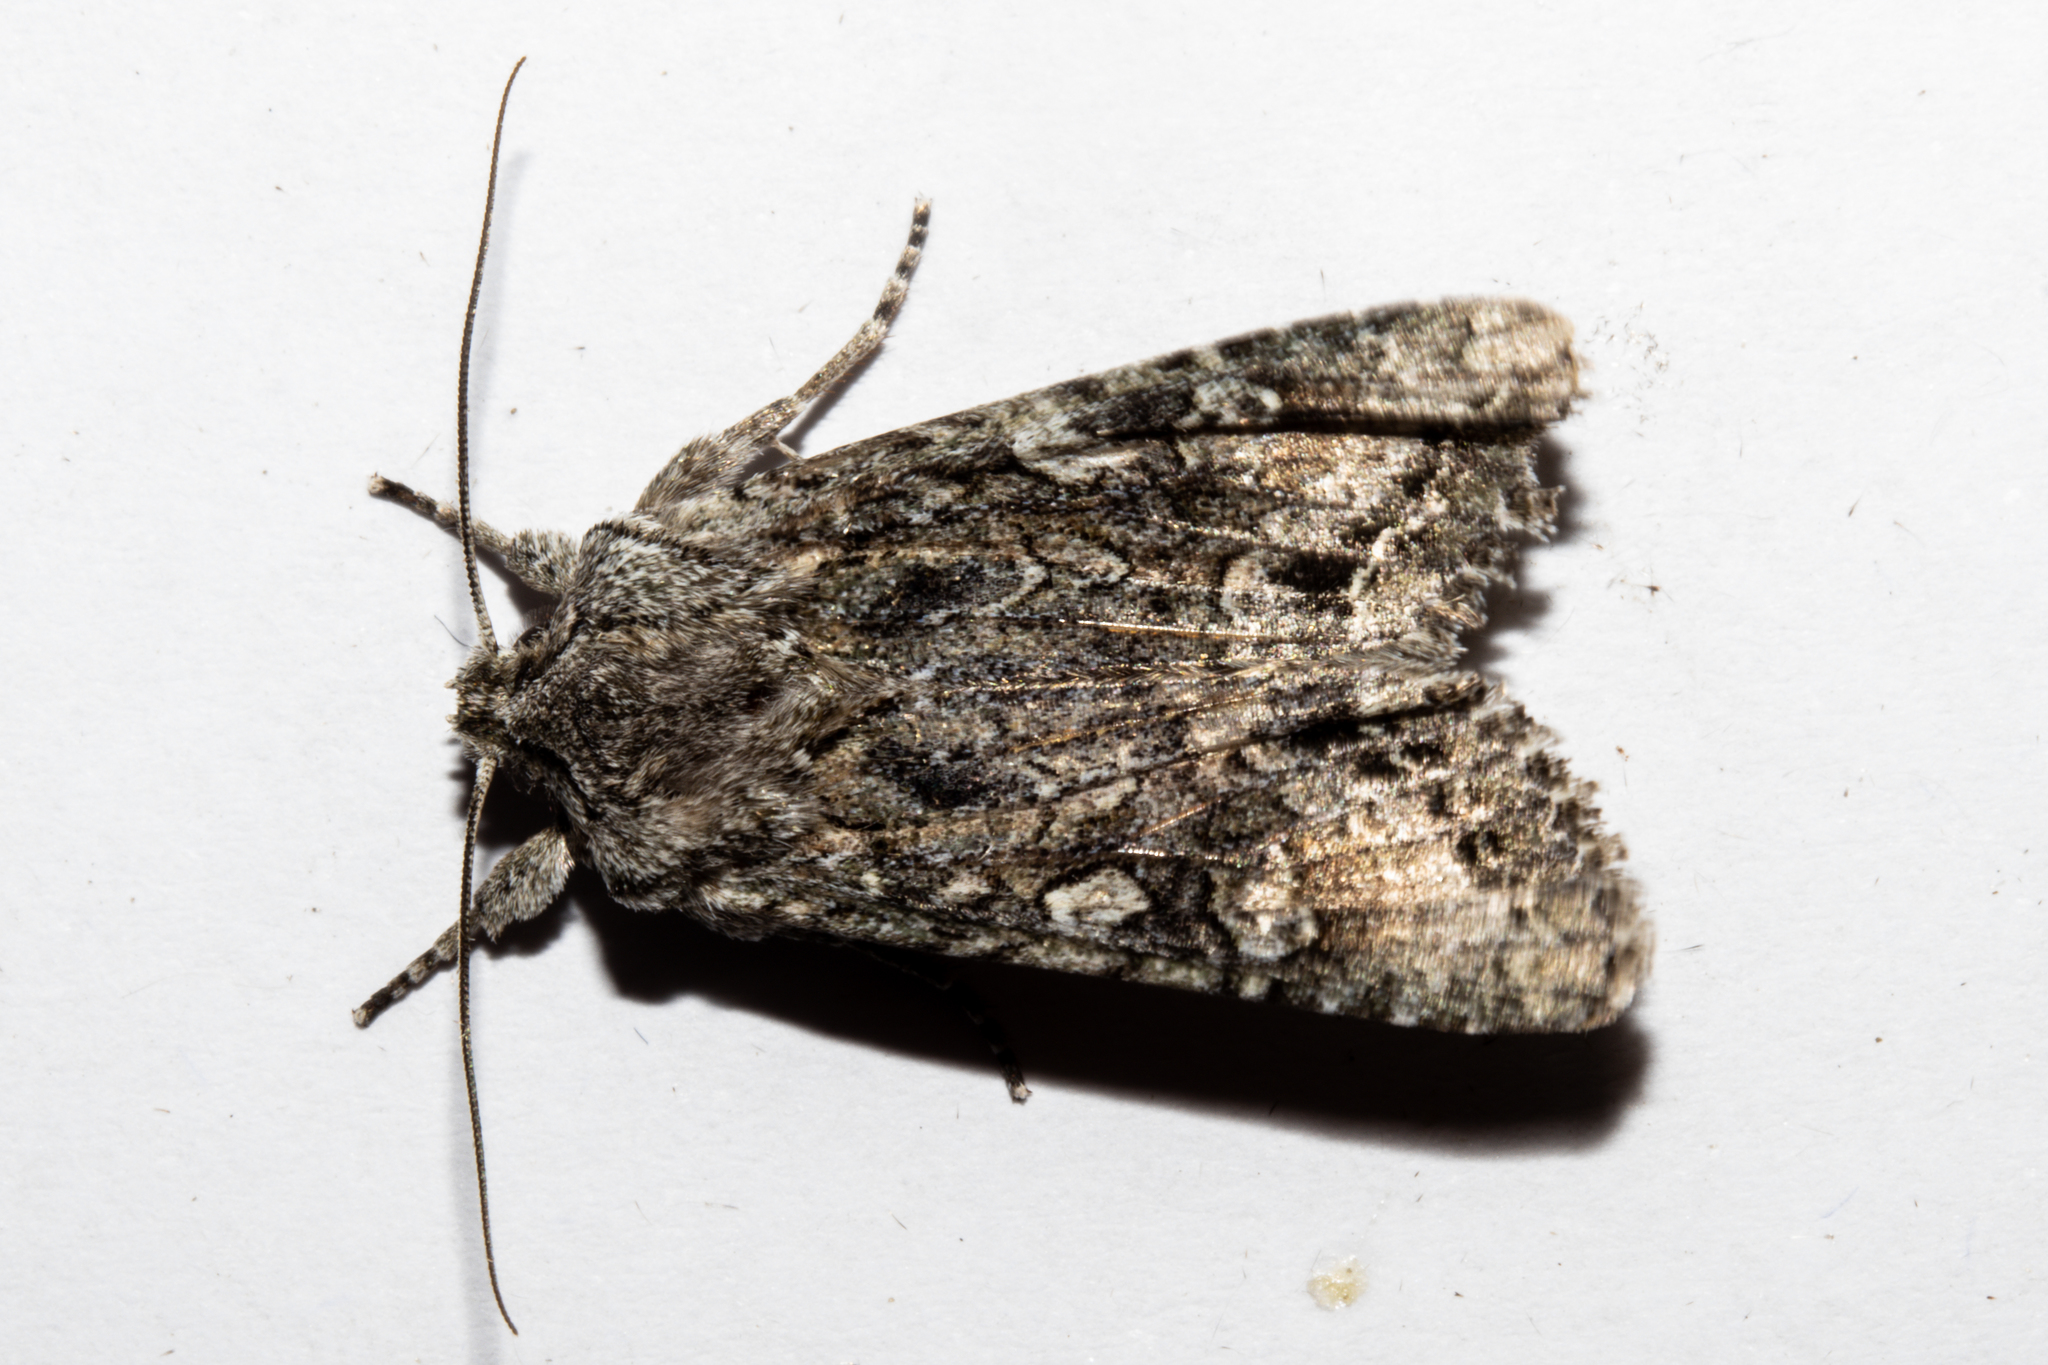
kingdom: Animalia
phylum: Arthropoda
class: Insecta
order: Lepidoptera
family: Noctuidae
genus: Ichneutica
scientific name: Ichneutica mutans
